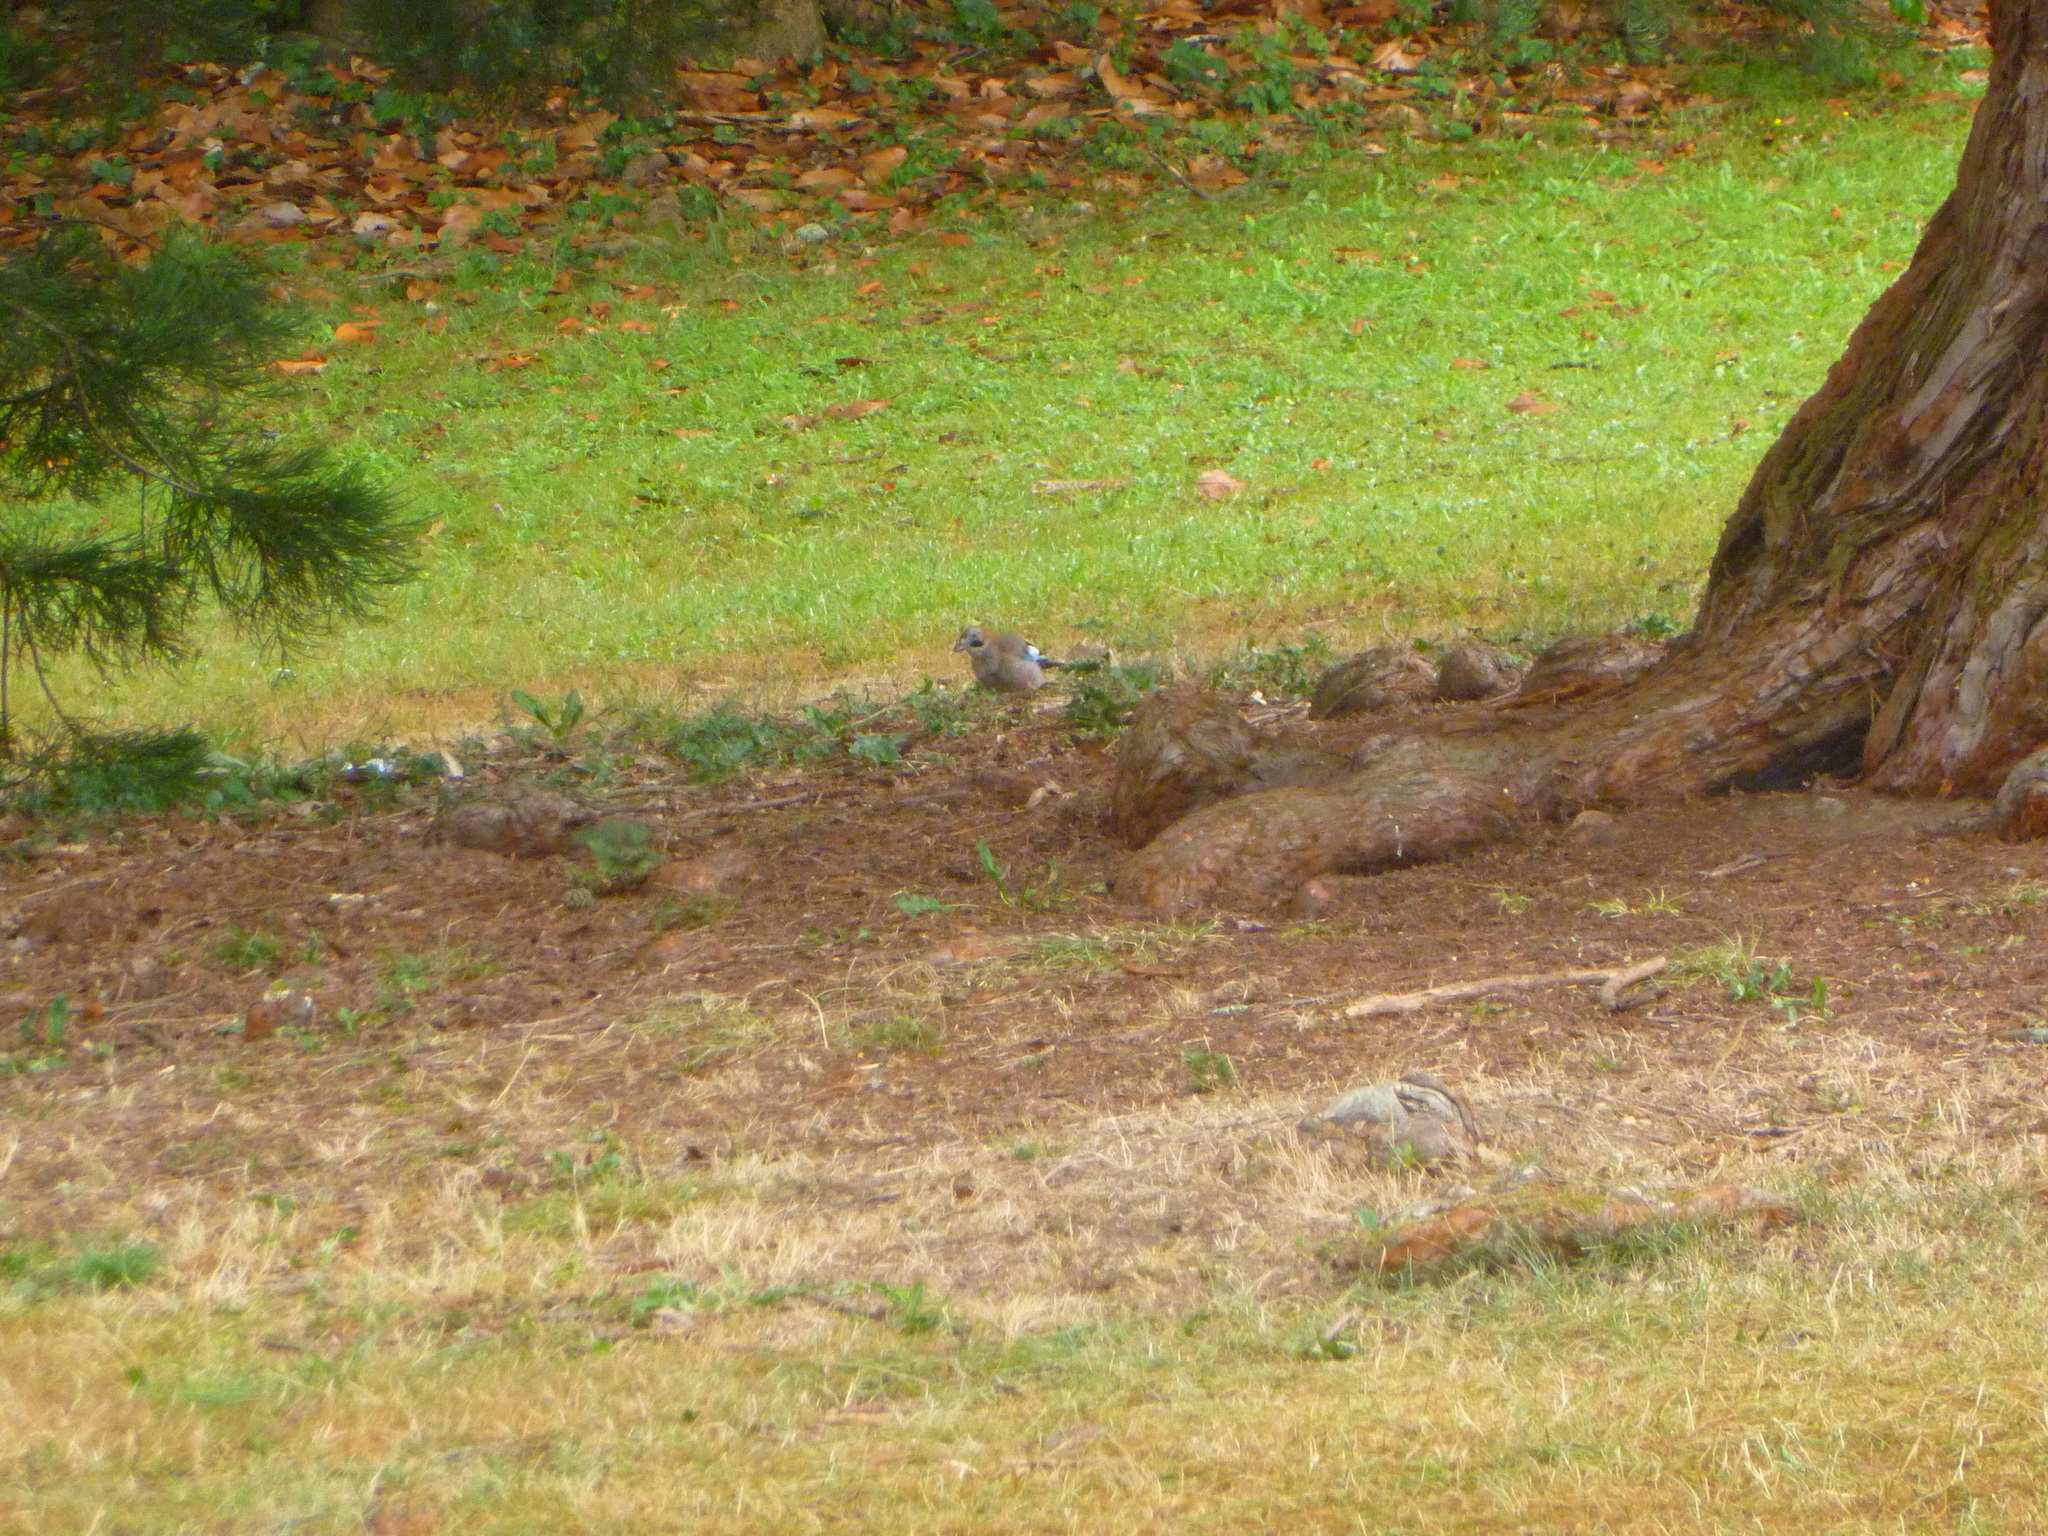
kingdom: Animalia
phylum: Chordata
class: Aves
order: Passeriformes
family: Corvidae
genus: Garrulus
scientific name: Garrulus glandarius
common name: Eurasian jay
